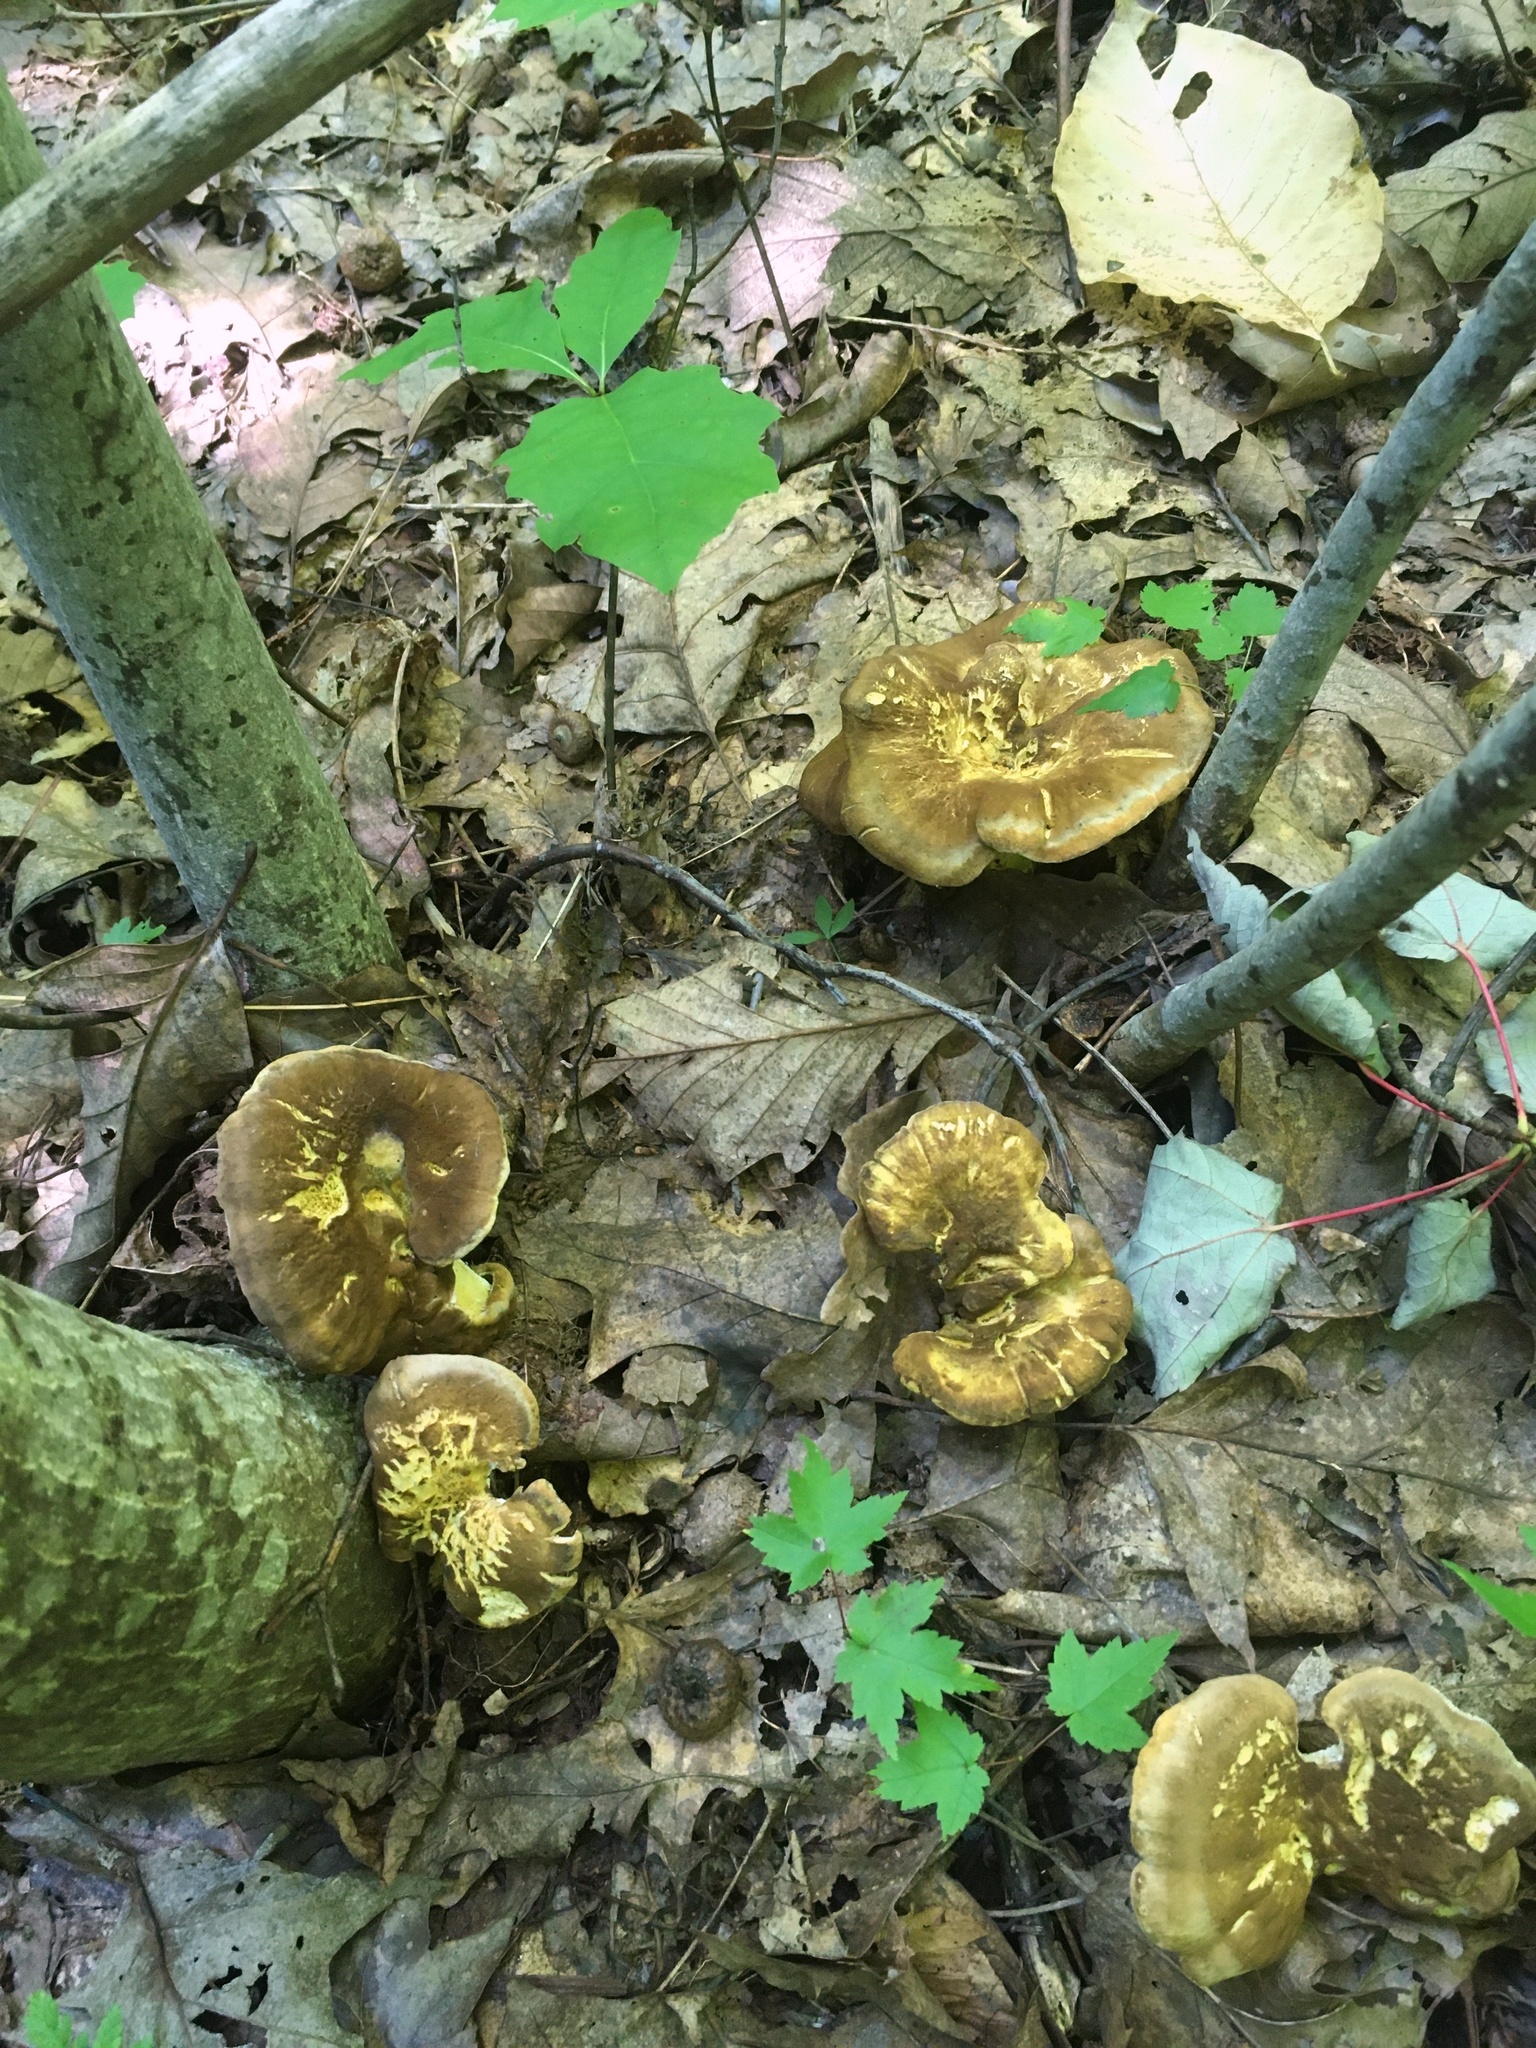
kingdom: Fungi
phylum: Basidiomycota
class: Agaricomycetes
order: Russulales
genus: Laeticutis
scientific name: Laeticutis cristata
